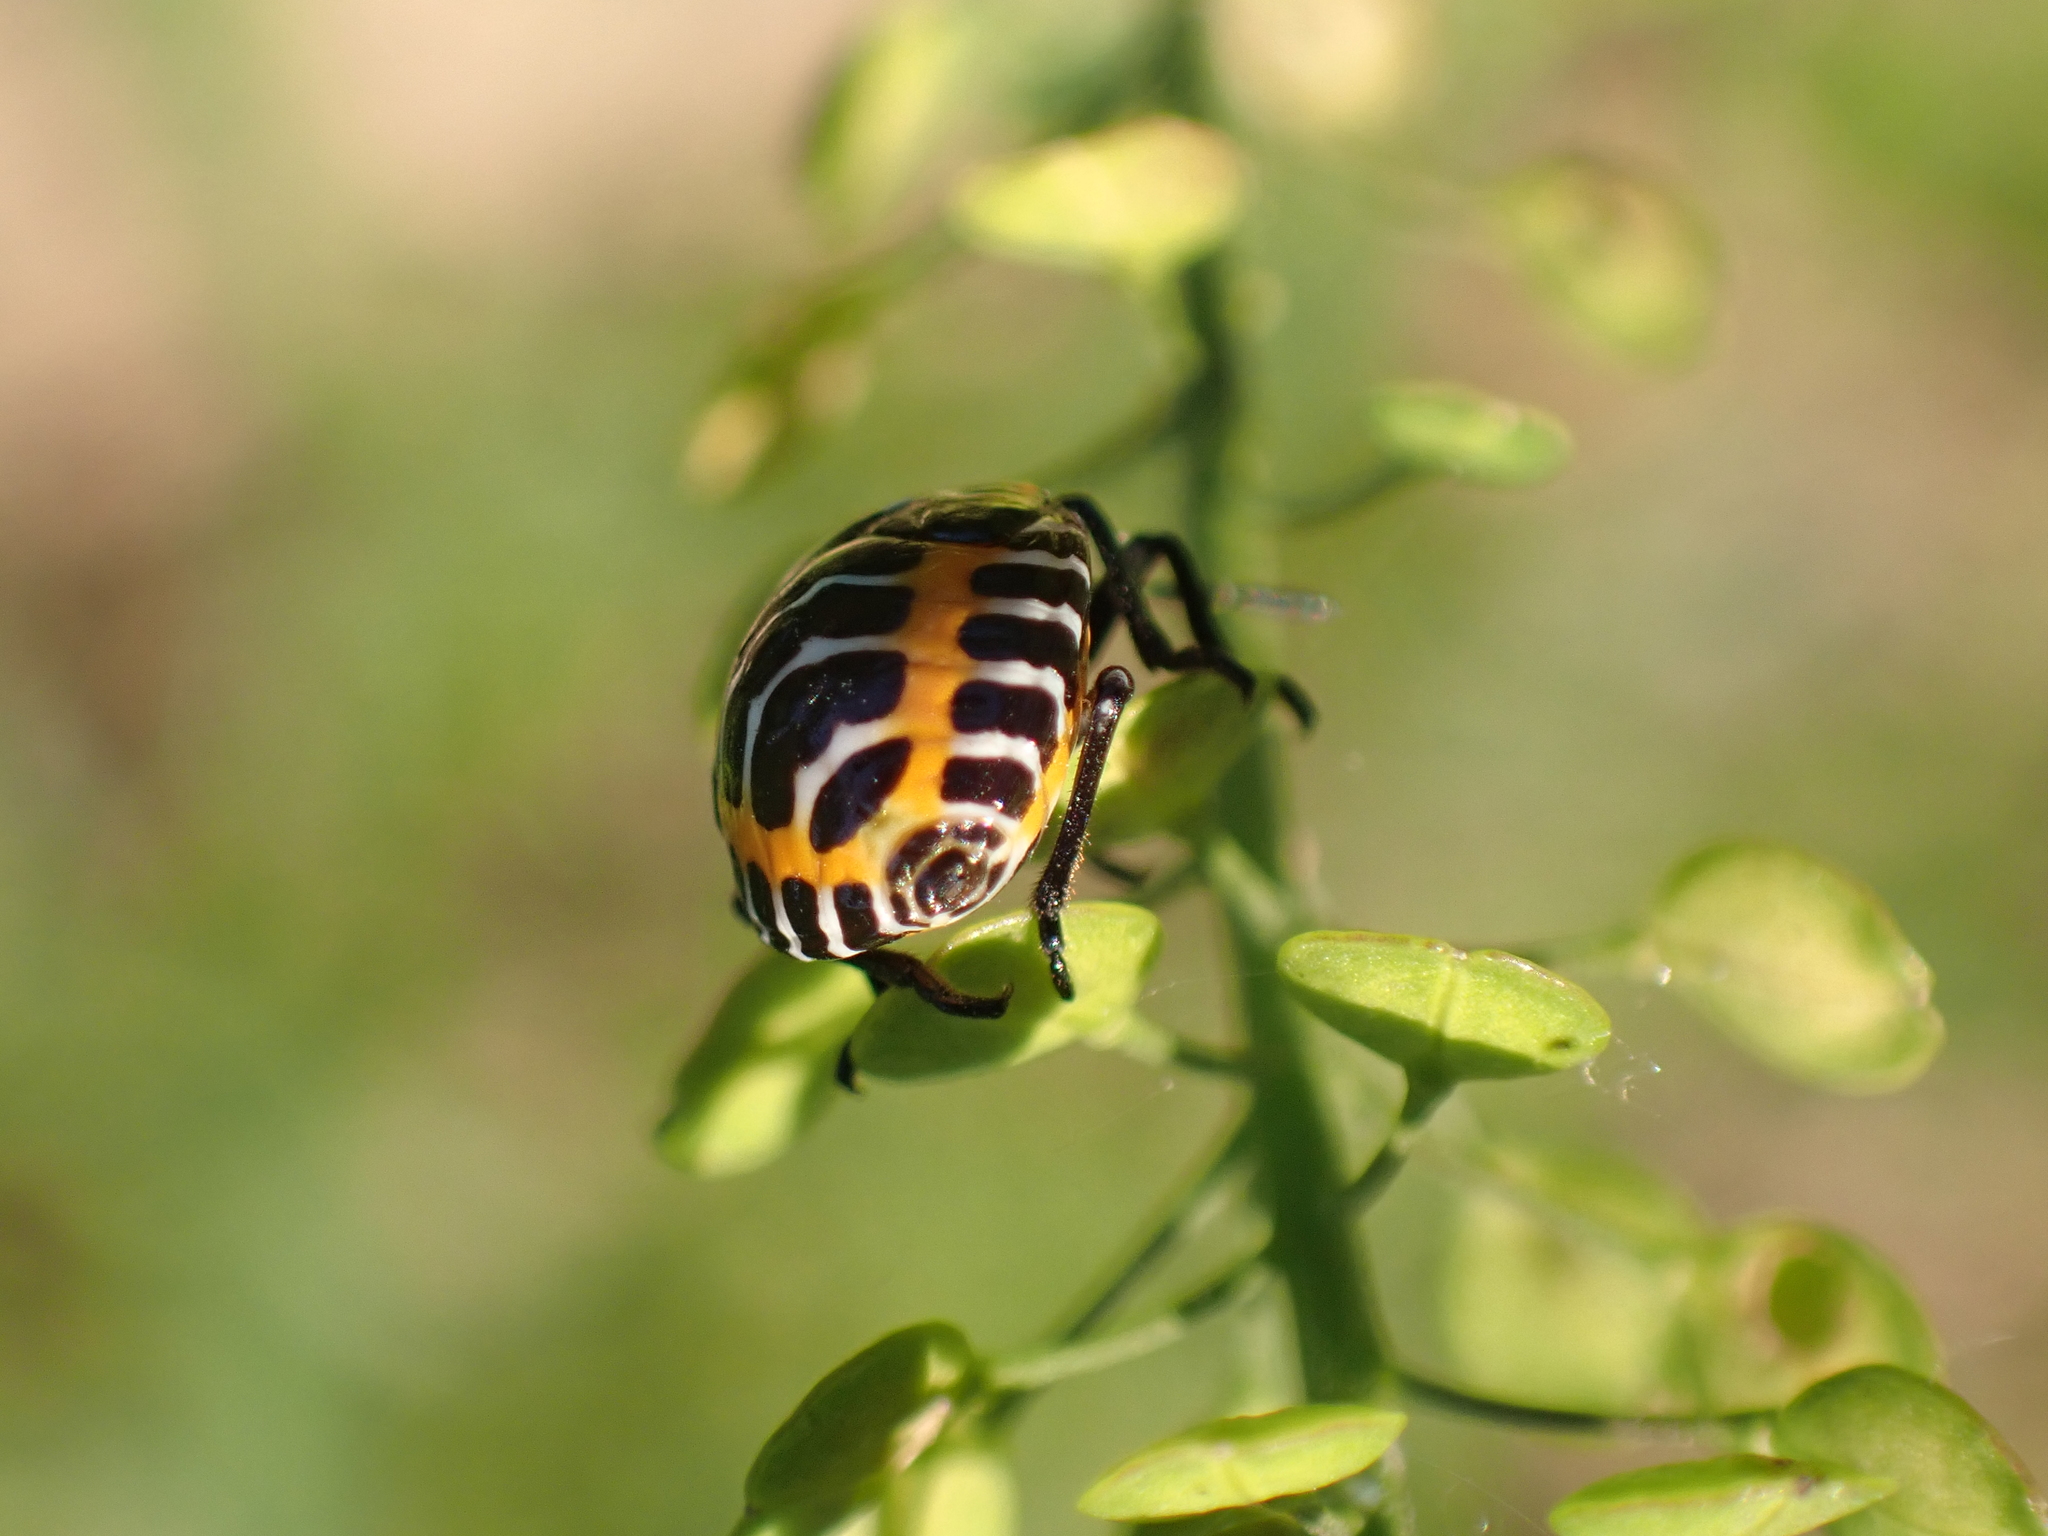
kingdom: Animalia
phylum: Arthropoda
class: Insecta
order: Hemiptera
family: Pentatomidae
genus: Murgantia
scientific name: Murgantia histrionica
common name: Harlequin bug
